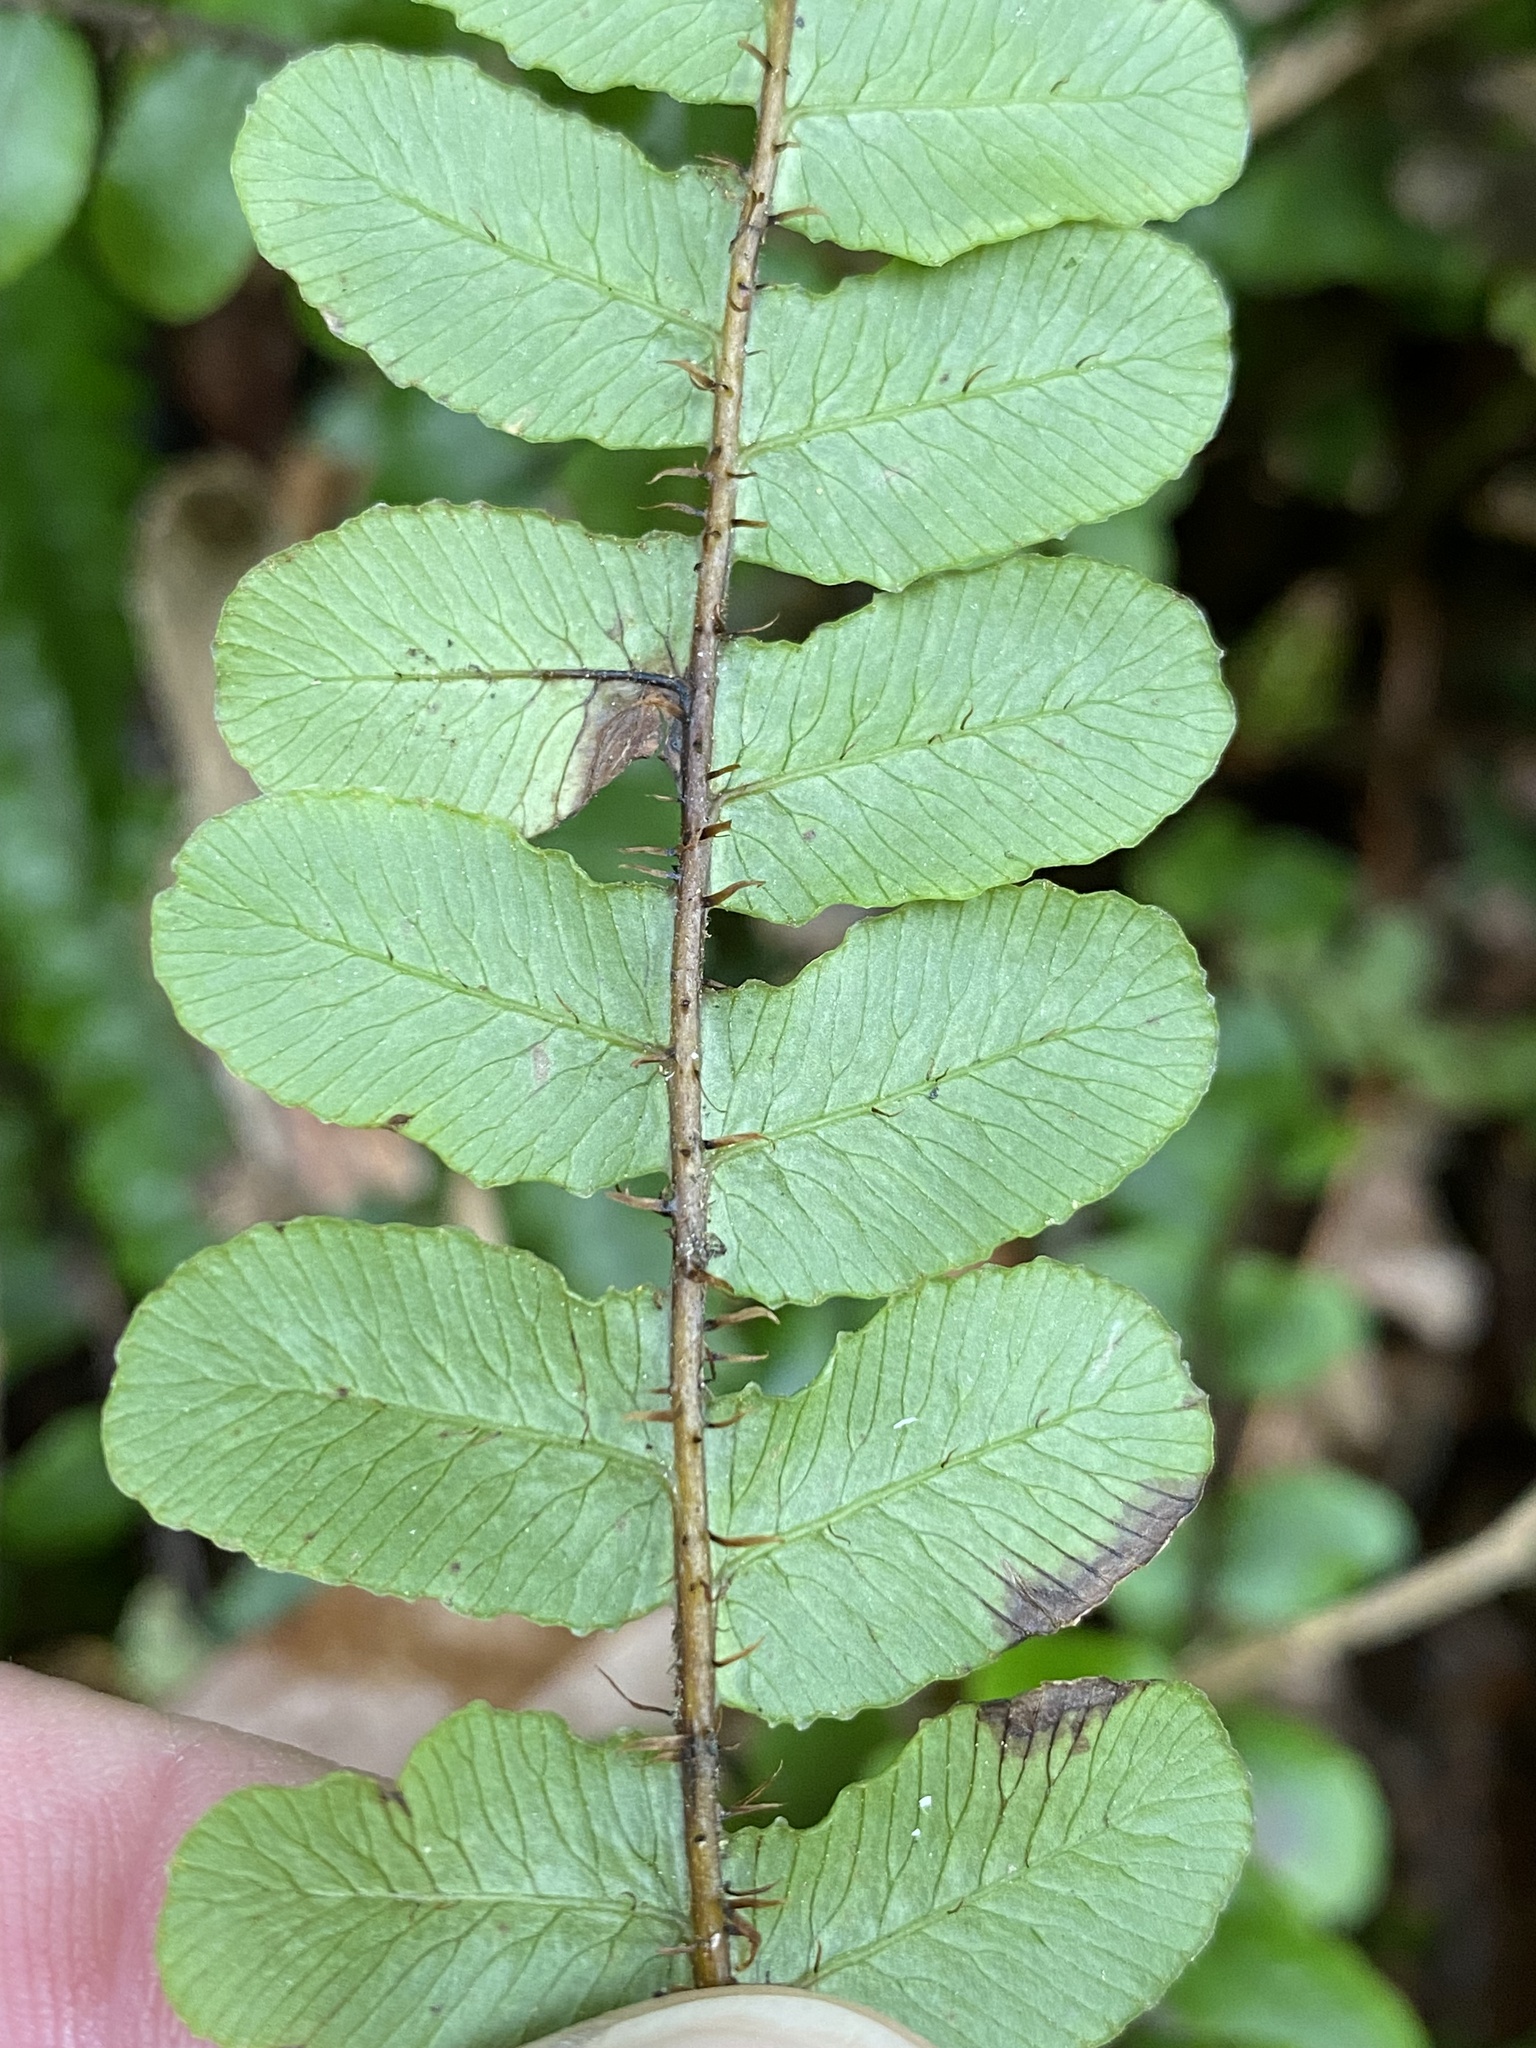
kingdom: Plantae
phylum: Tracheophyta
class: Polypodiopsida
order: Polypodiales
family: Blechnaceae
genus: Cranfillia
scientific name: Cranfillia fluviatilis
